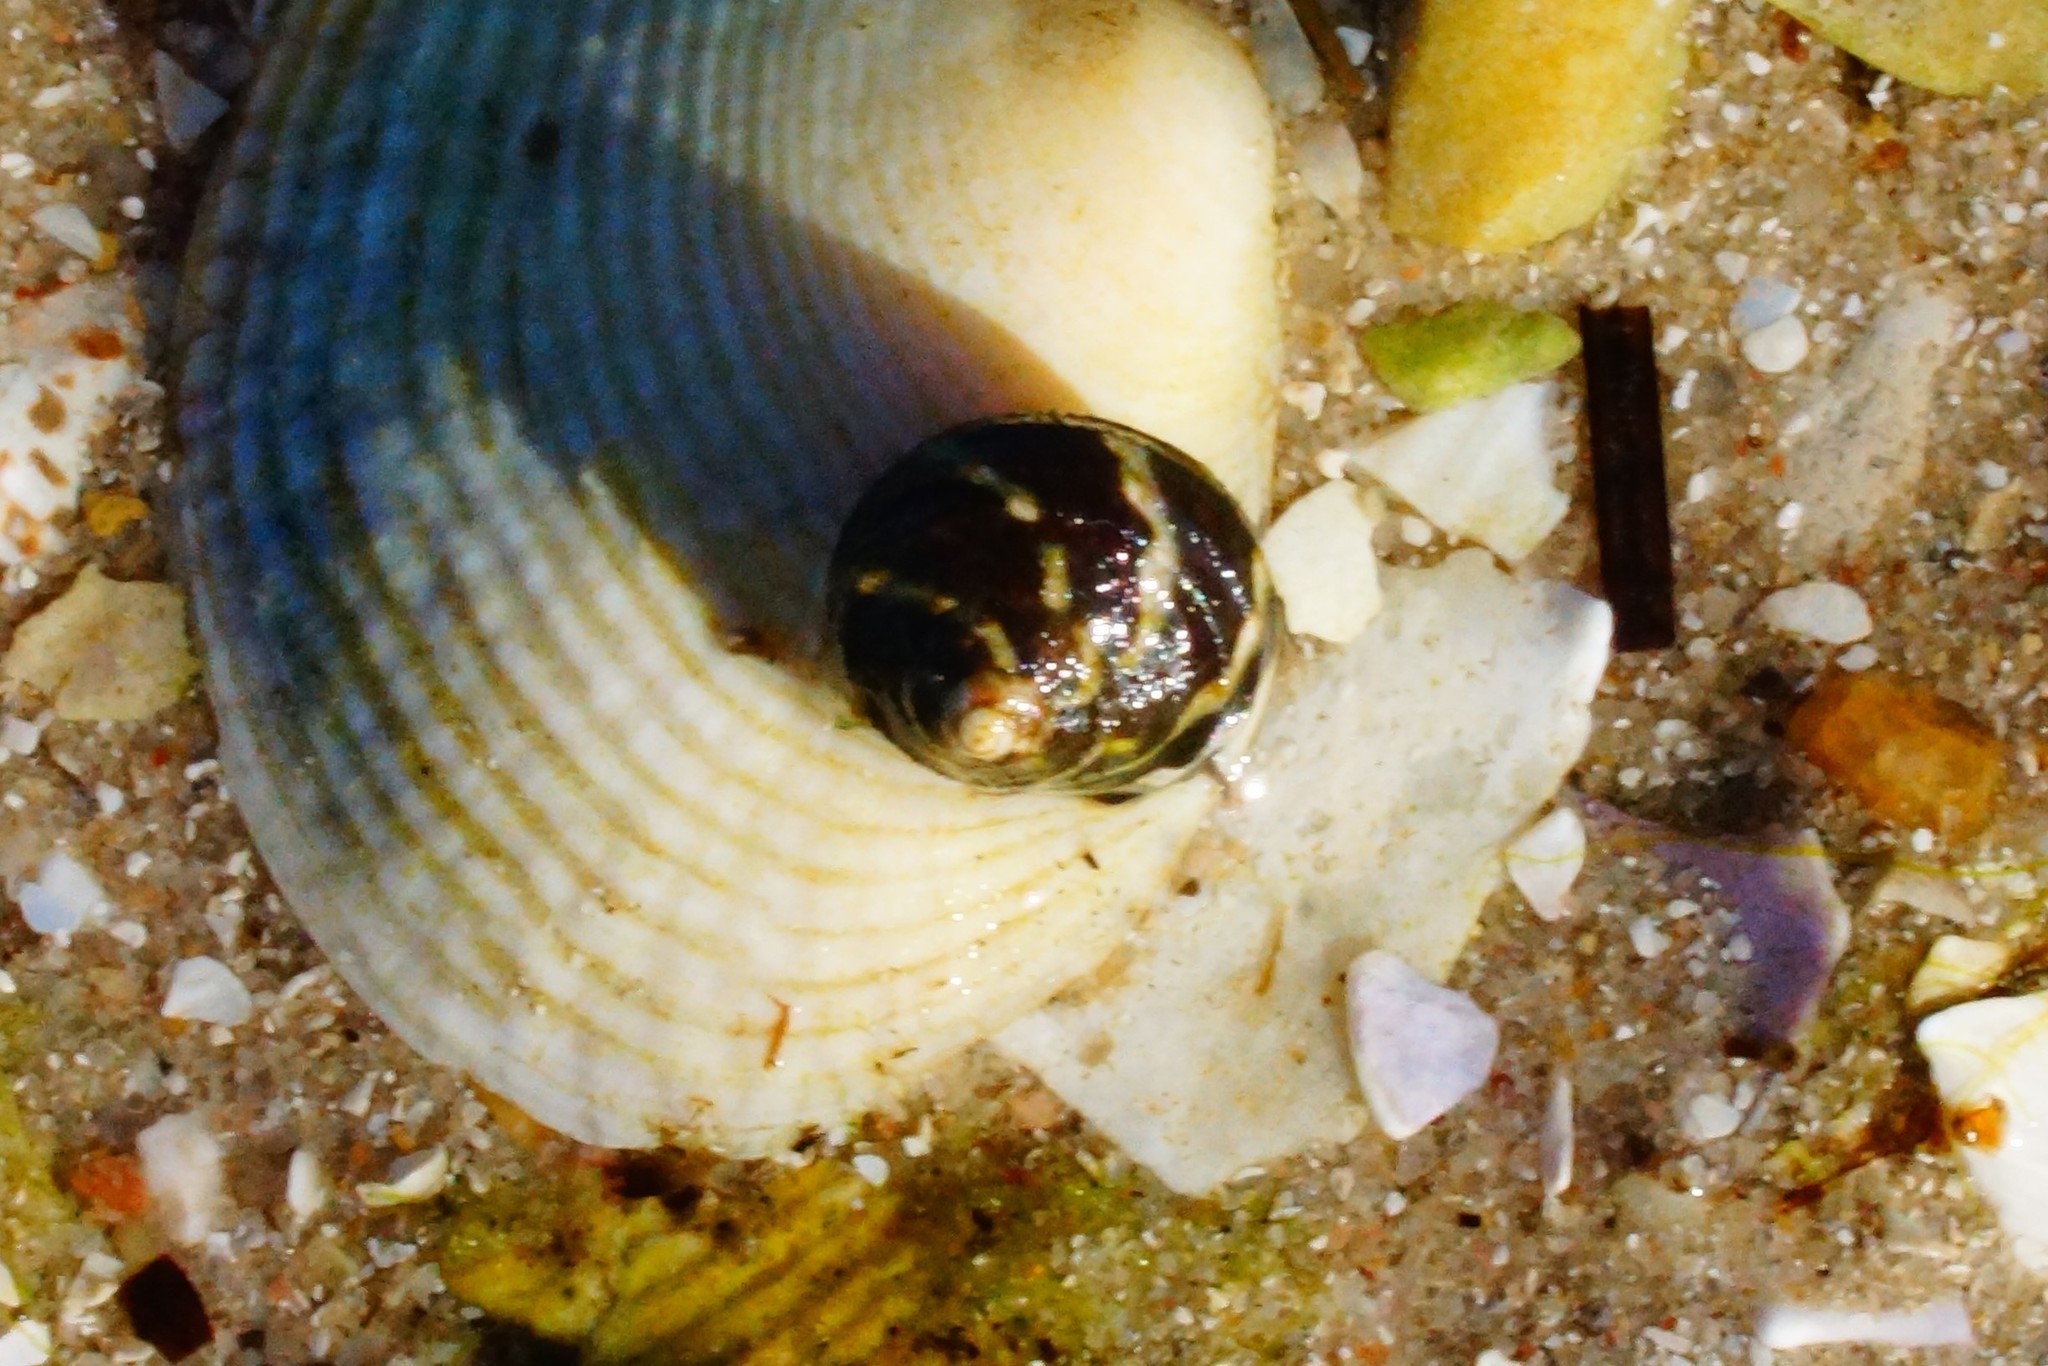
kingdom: Animalia
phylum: Mollusca
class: Gastropoda
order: Trochida
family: Trochidae
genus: Austrocochlea
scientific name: Austrocochlea porcata
